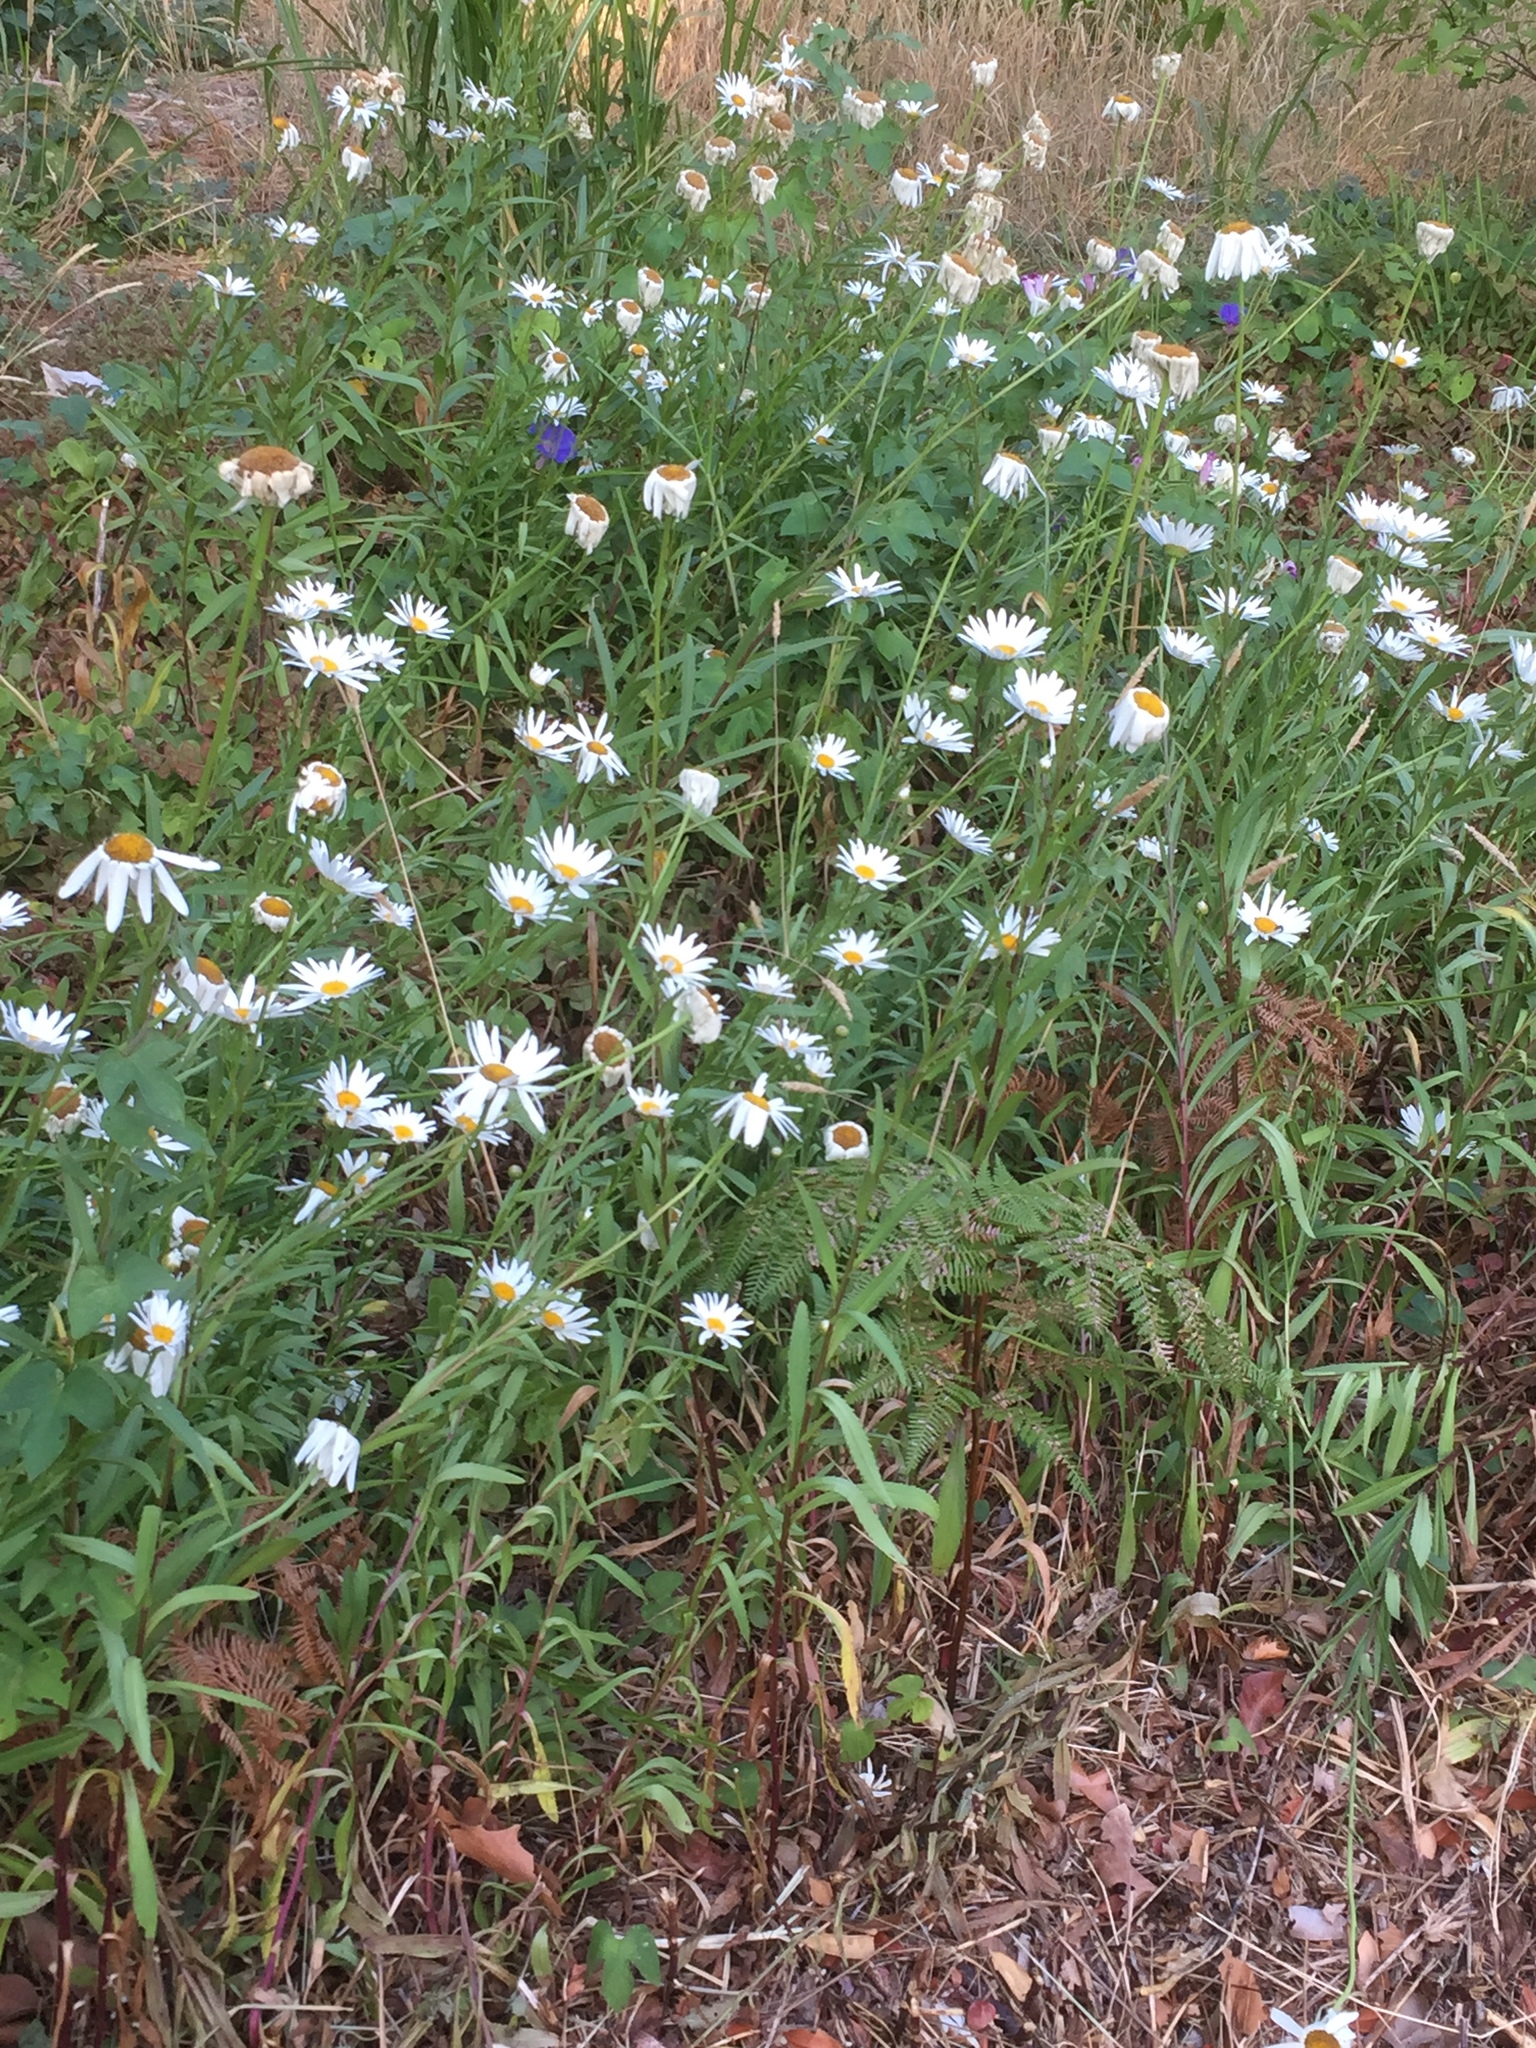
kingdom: Plantae
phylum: Tracheophyta
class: Magnoliopsida
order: Asterales
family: Asteraceae
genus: Leucanthemum
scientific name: Leucanthemum maximum
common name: Max chrysanthemum
